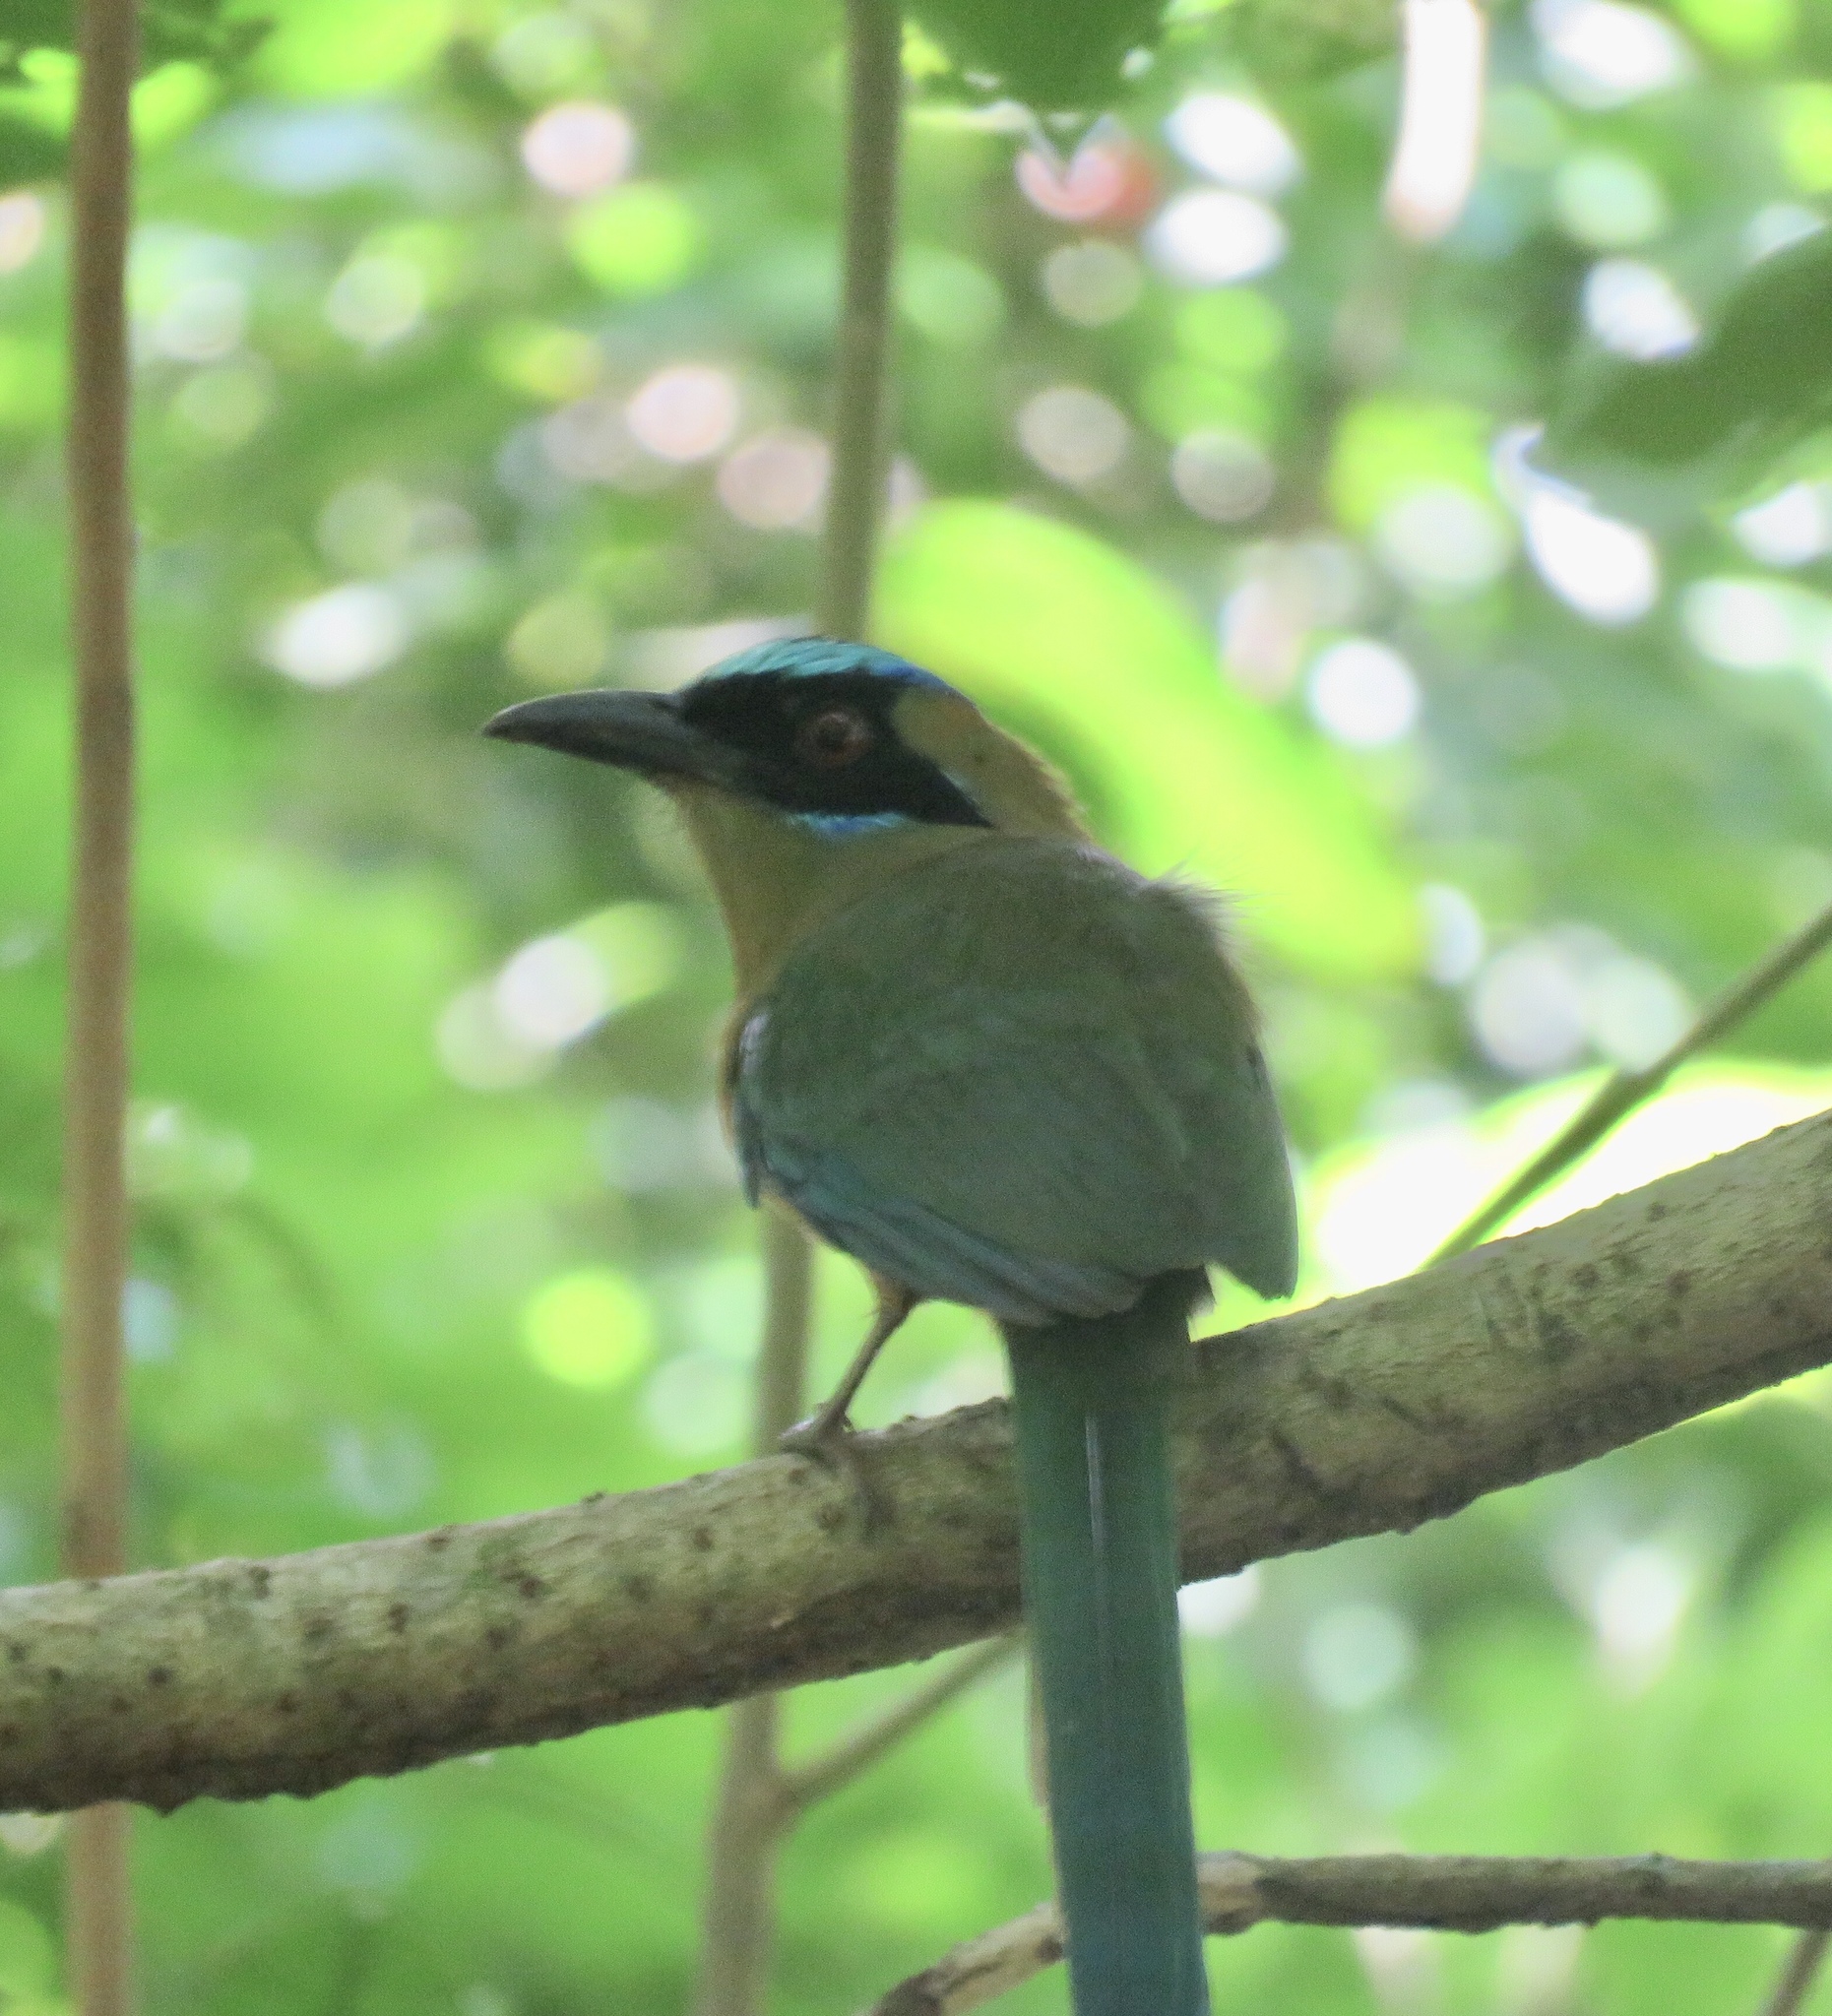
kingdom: Animalia
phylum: Chordata
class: Aves
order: Coraciiformes
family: Momotidae
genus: Momotus
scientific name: Momotus subrufescens
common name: Whooping motmot
